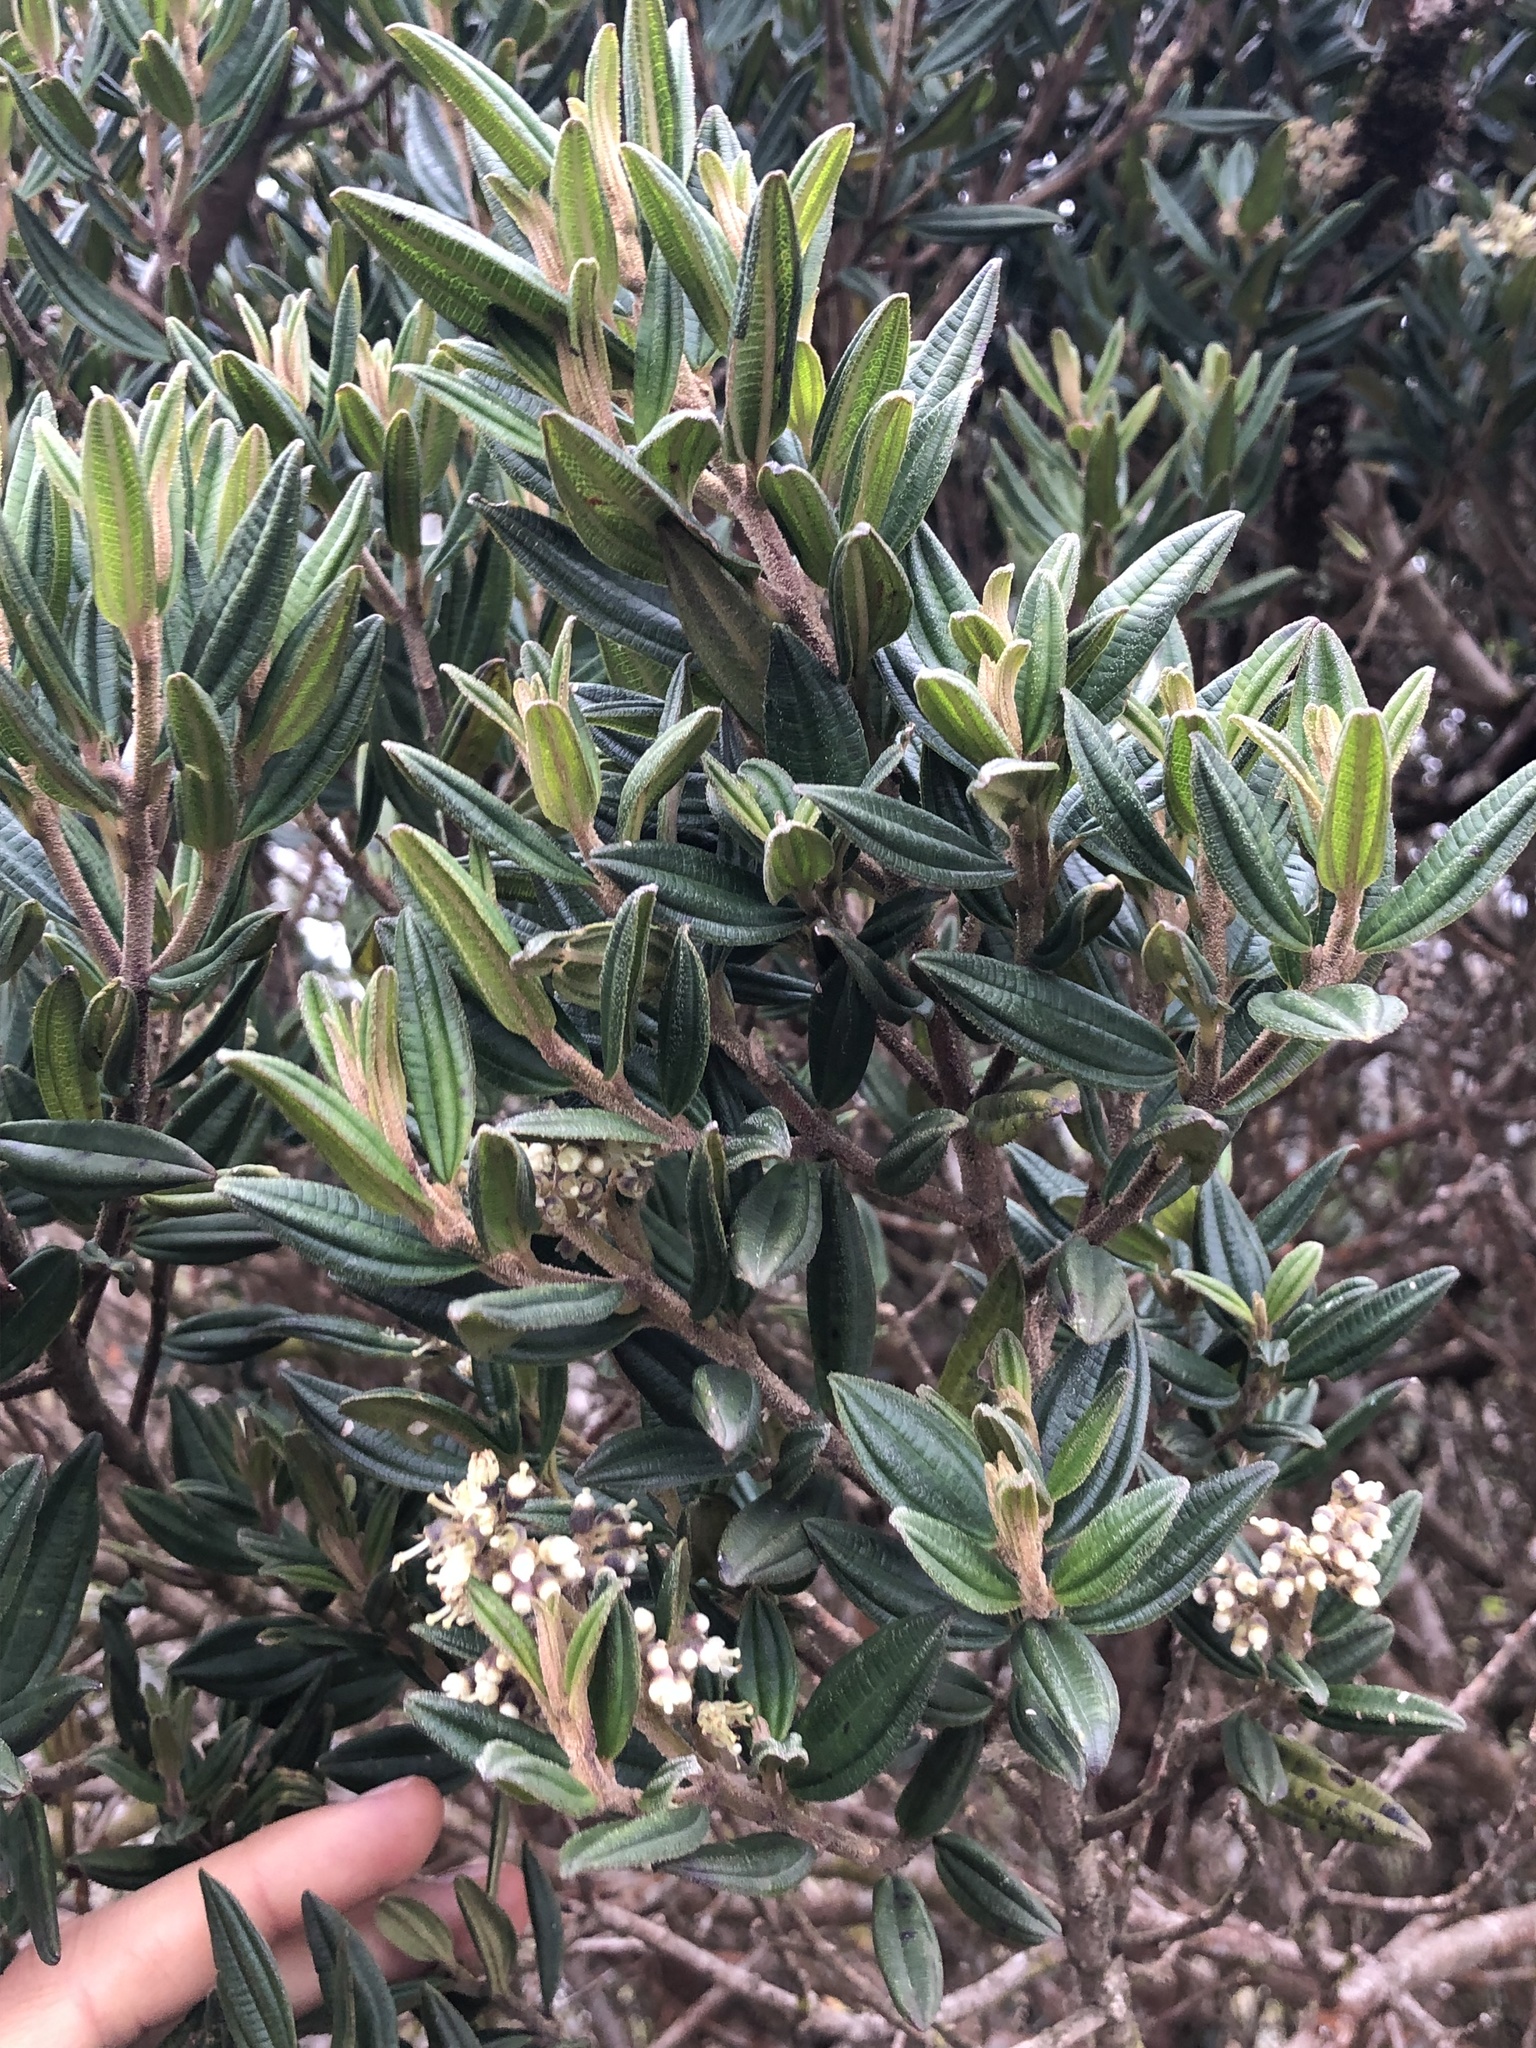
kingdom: Plantae
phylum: Tracheophyta
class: Magnoliopsida
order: Myrtales
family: Melastomataceae
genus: Miconia
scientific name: Miconia elaeoides
